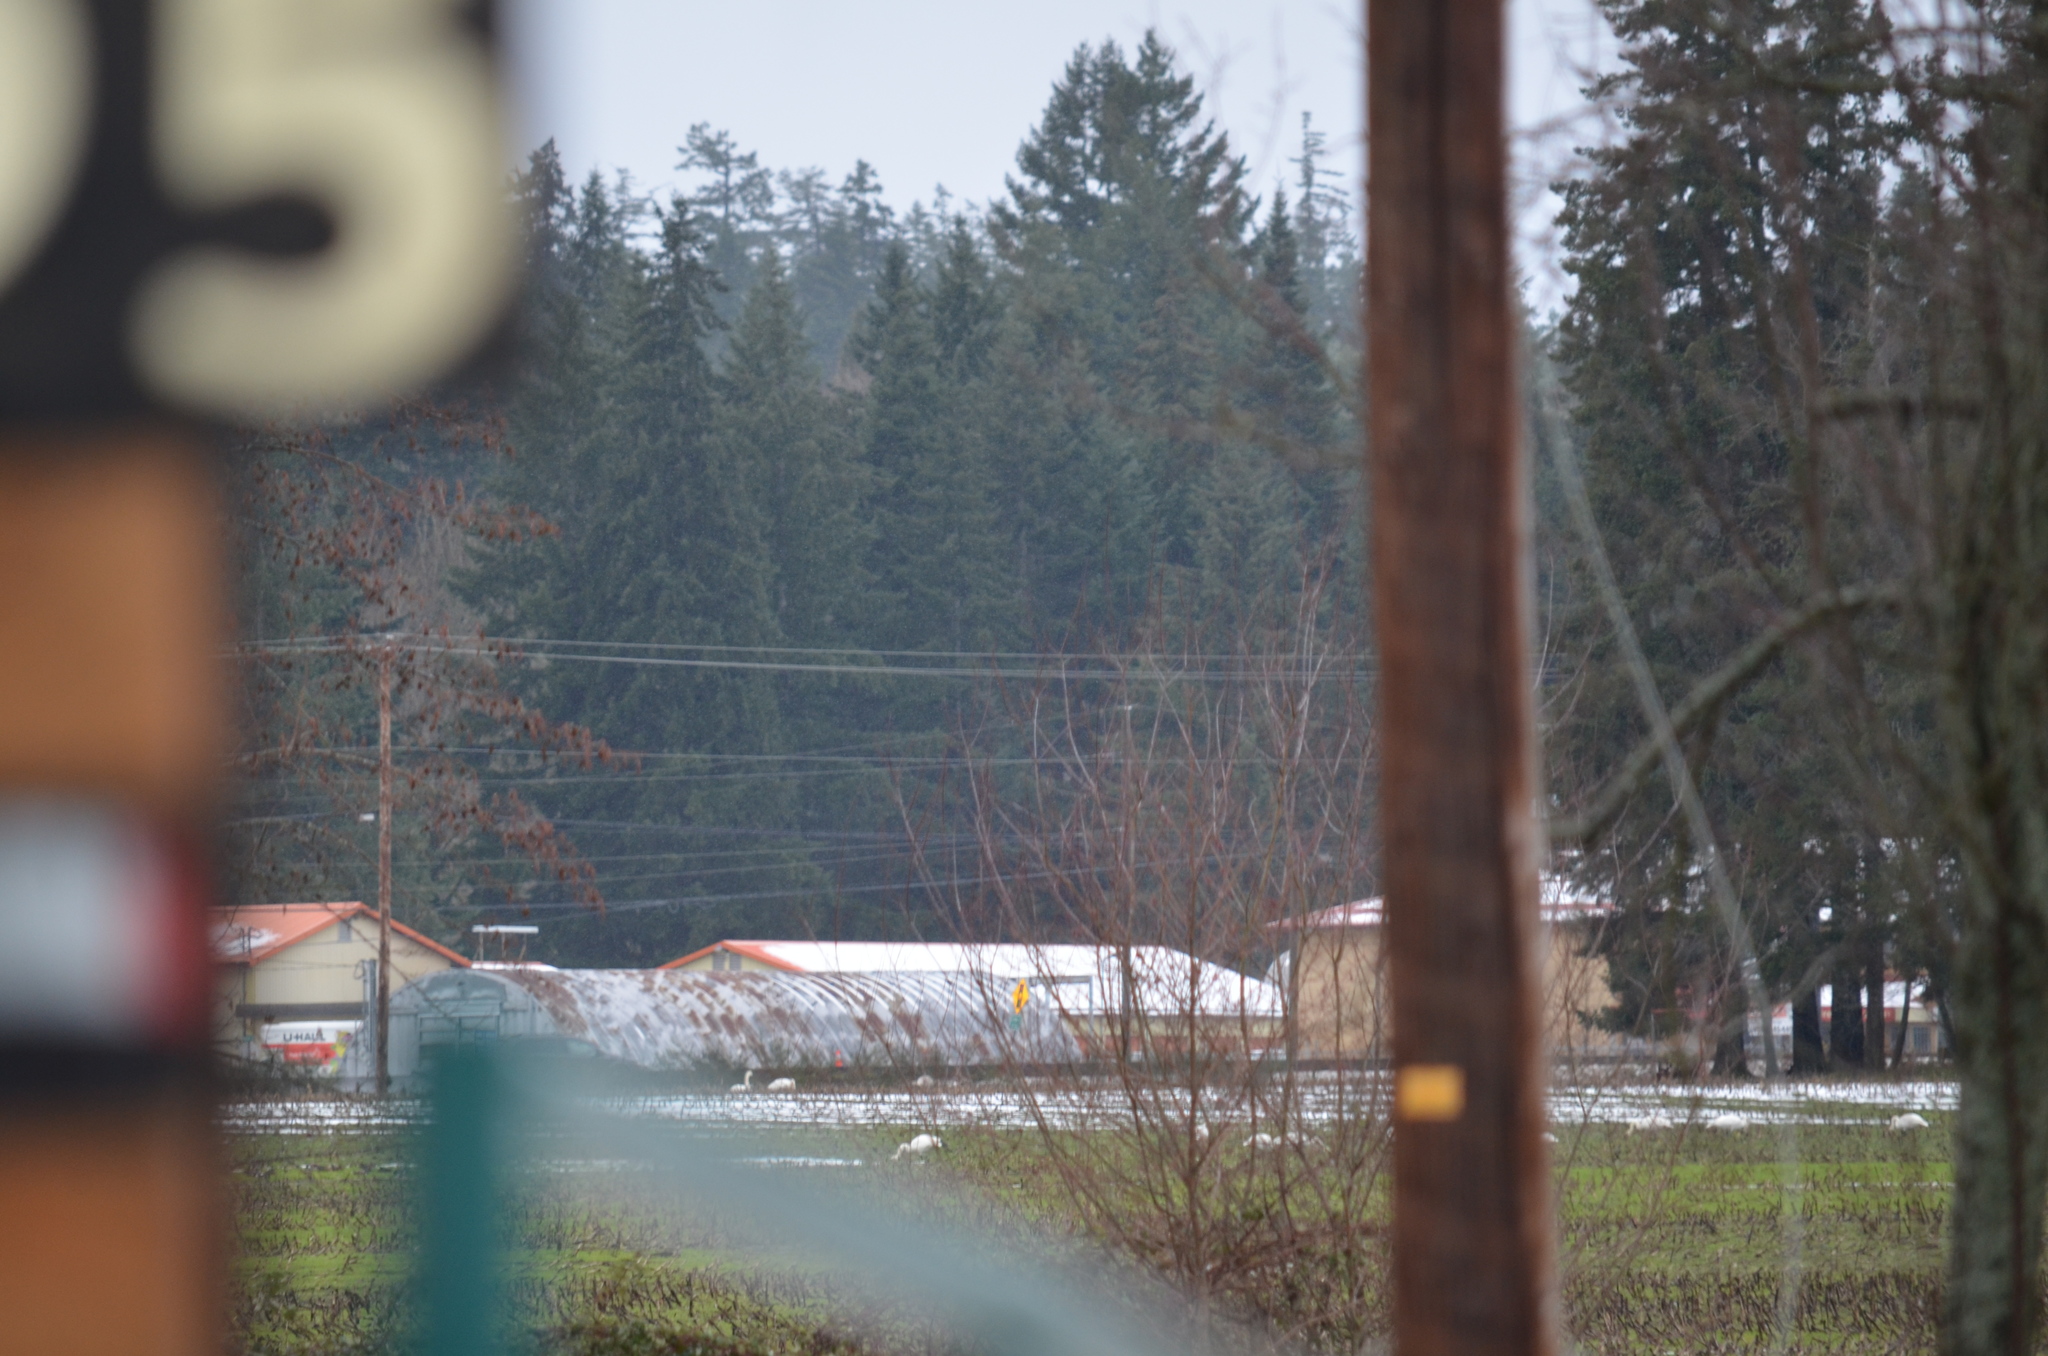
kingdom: Animalia
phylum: Chordata
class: Aves
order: Anseriformes
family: Anatidae
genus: Cygnus
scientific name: Cygnus buccinator
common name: Trumpeter swan
